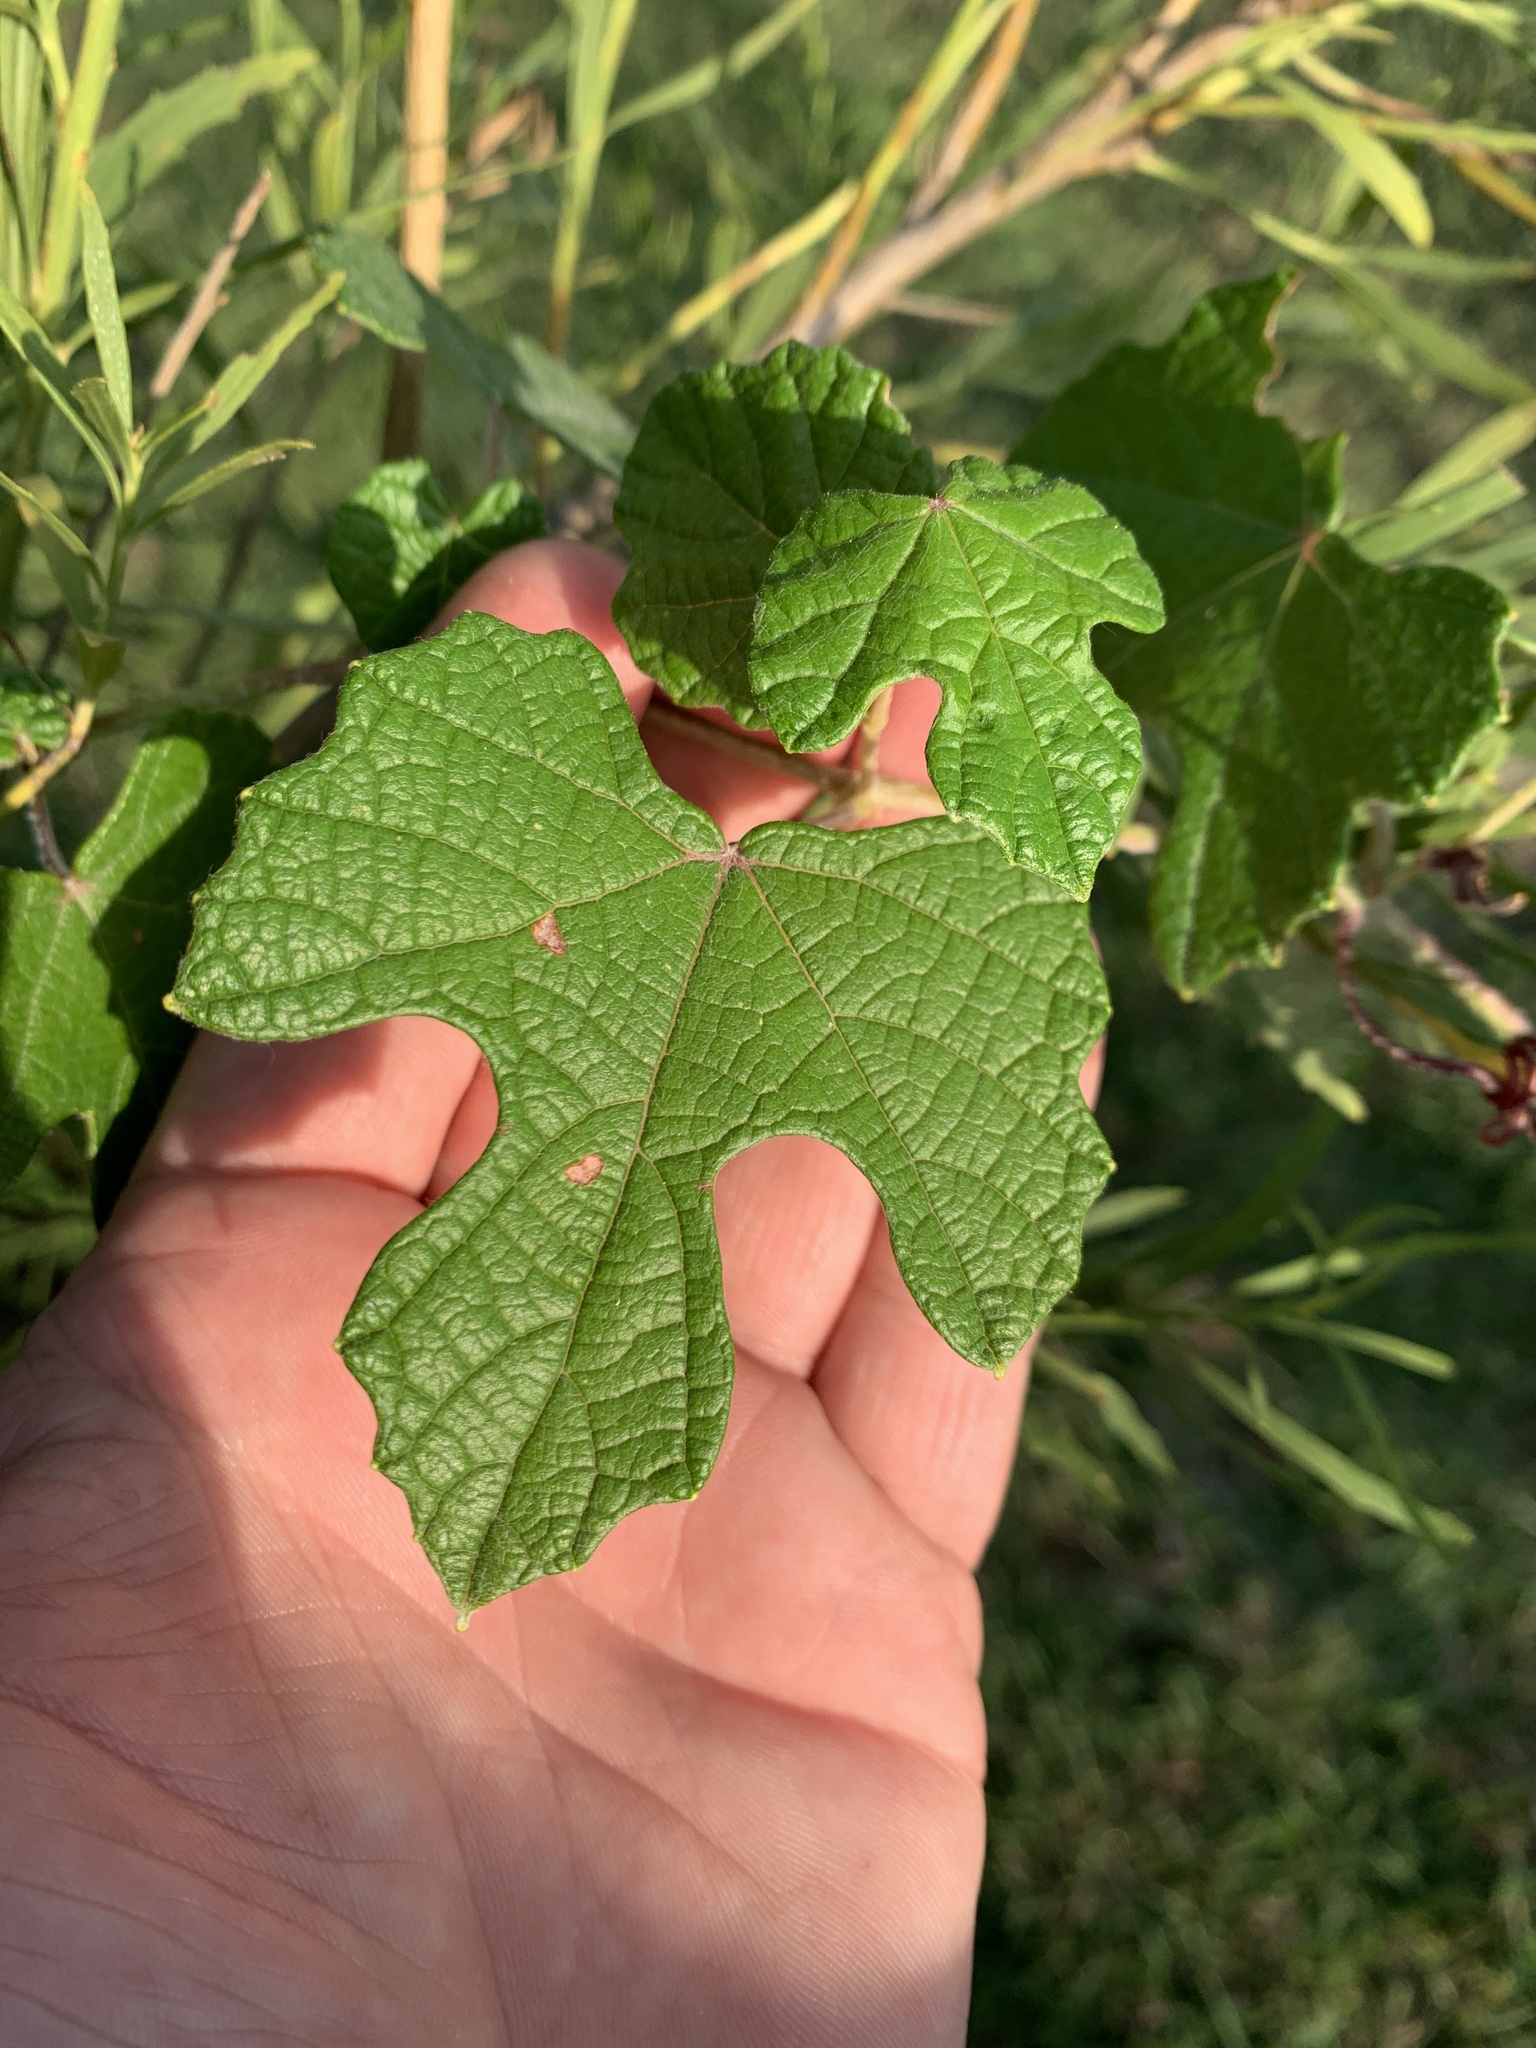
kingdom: Plantae
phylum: Tracheophyta
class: Magnoliopsida
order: Vitales
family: Vitaceae
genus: Vitis
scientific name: Vitis mustangensis
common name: Mustang grape
